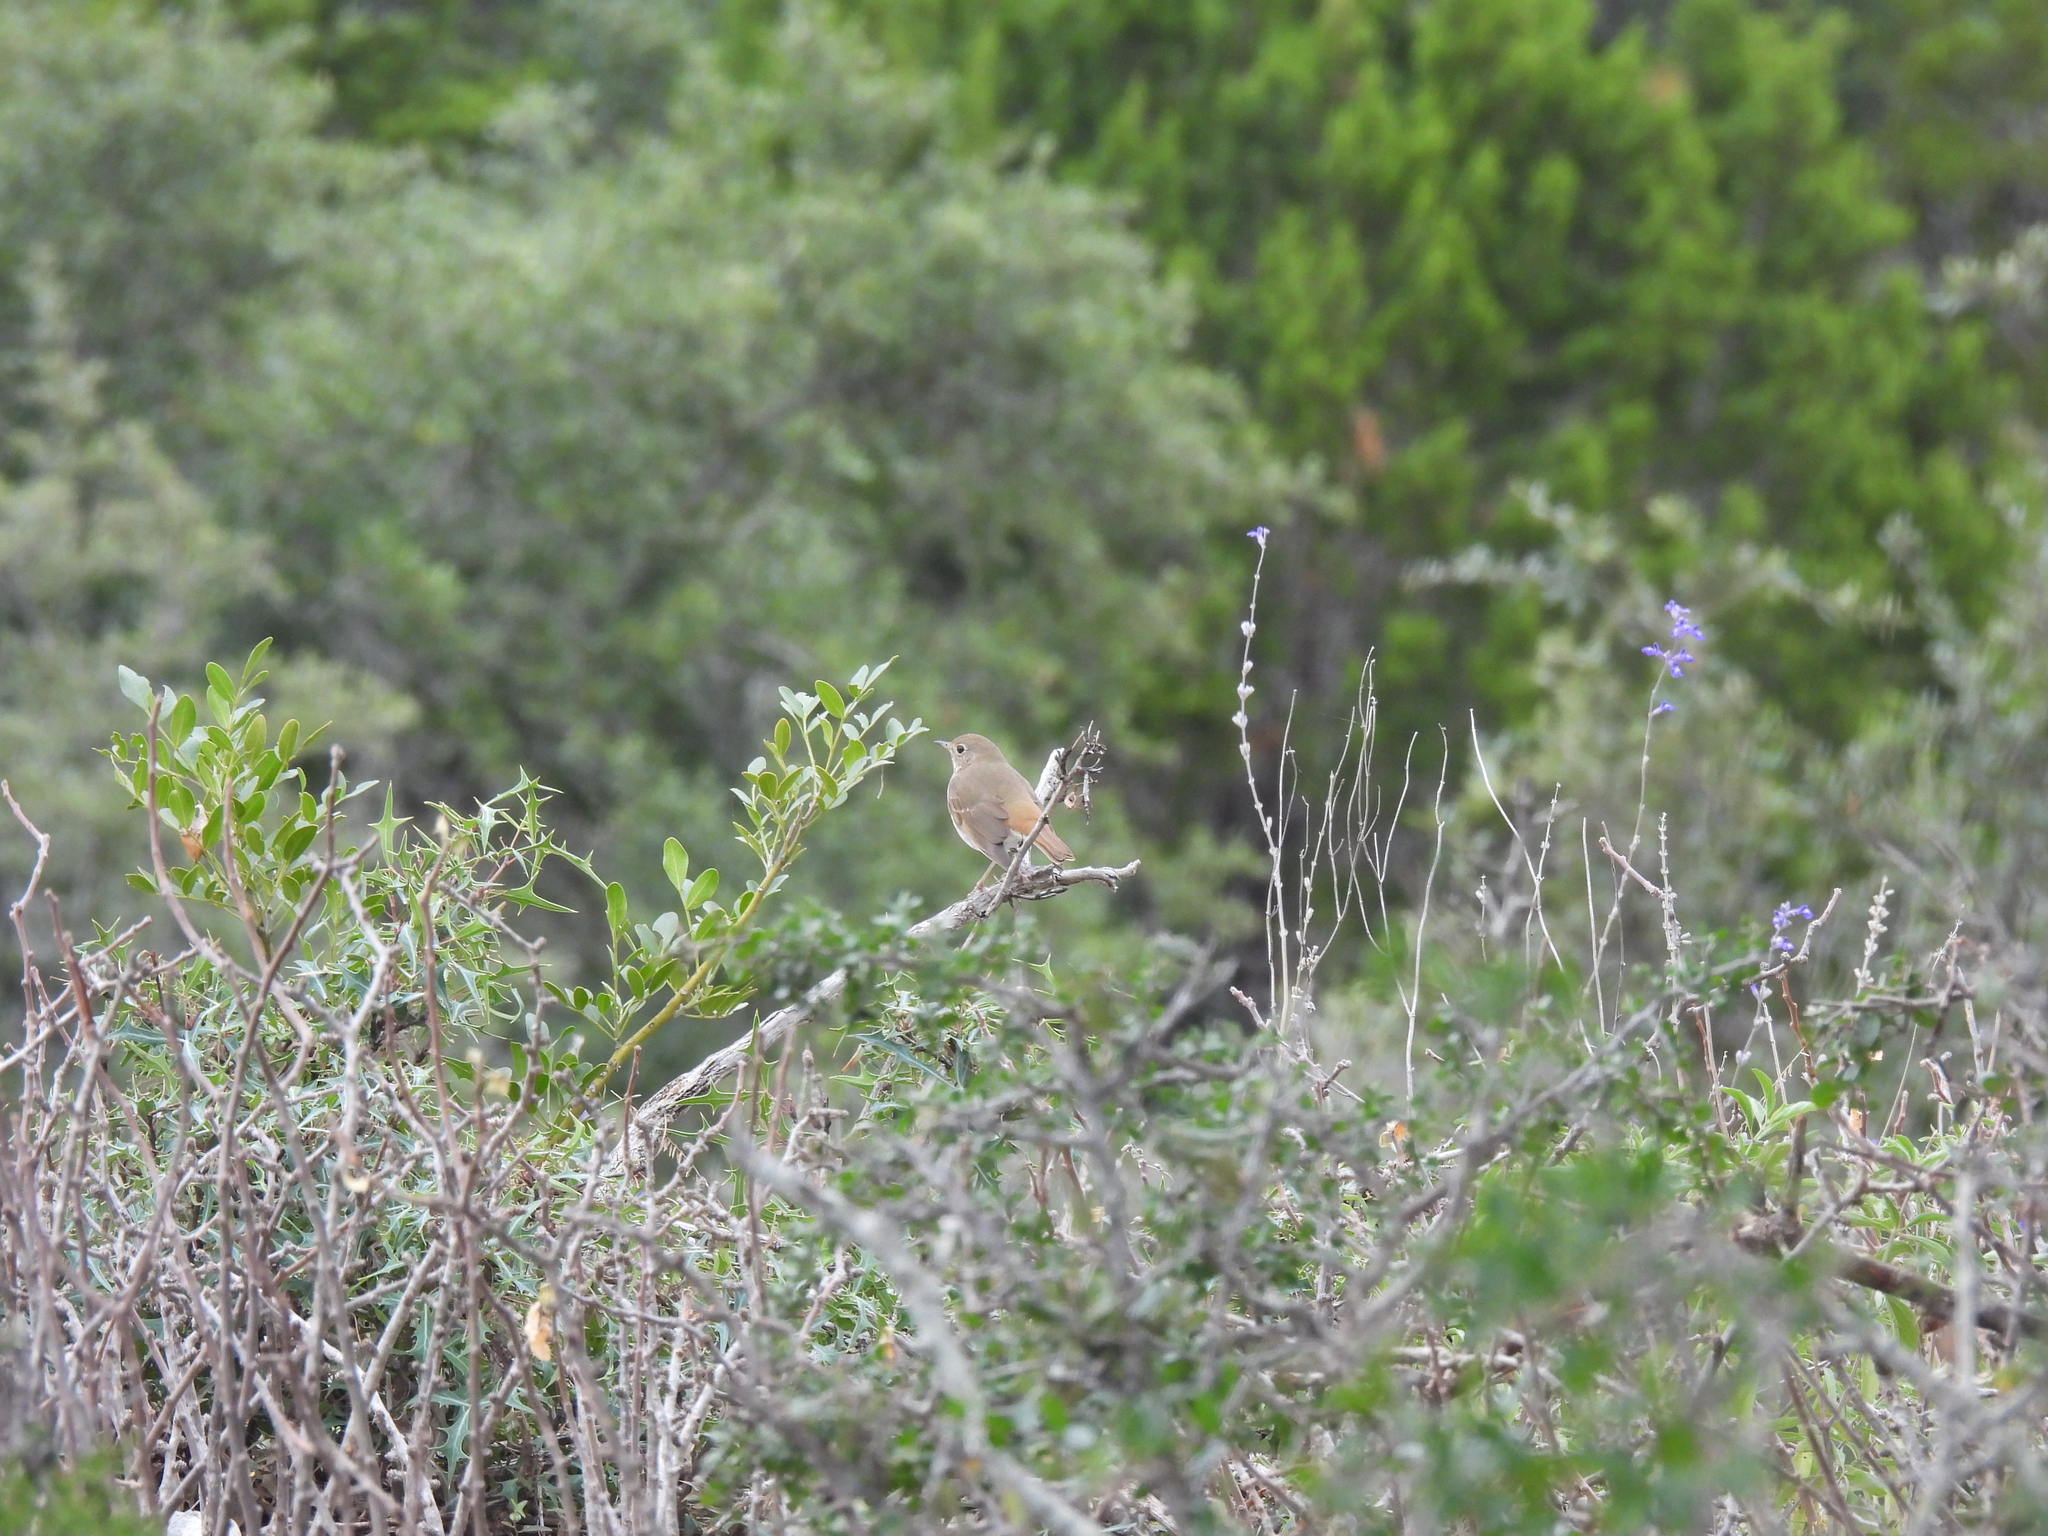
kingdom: Animalia
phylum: Chordata
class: Aves
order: Passeriformes
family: Turdidae
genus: Catharus
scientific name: Catharus guttatus
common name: Hermit thrush
